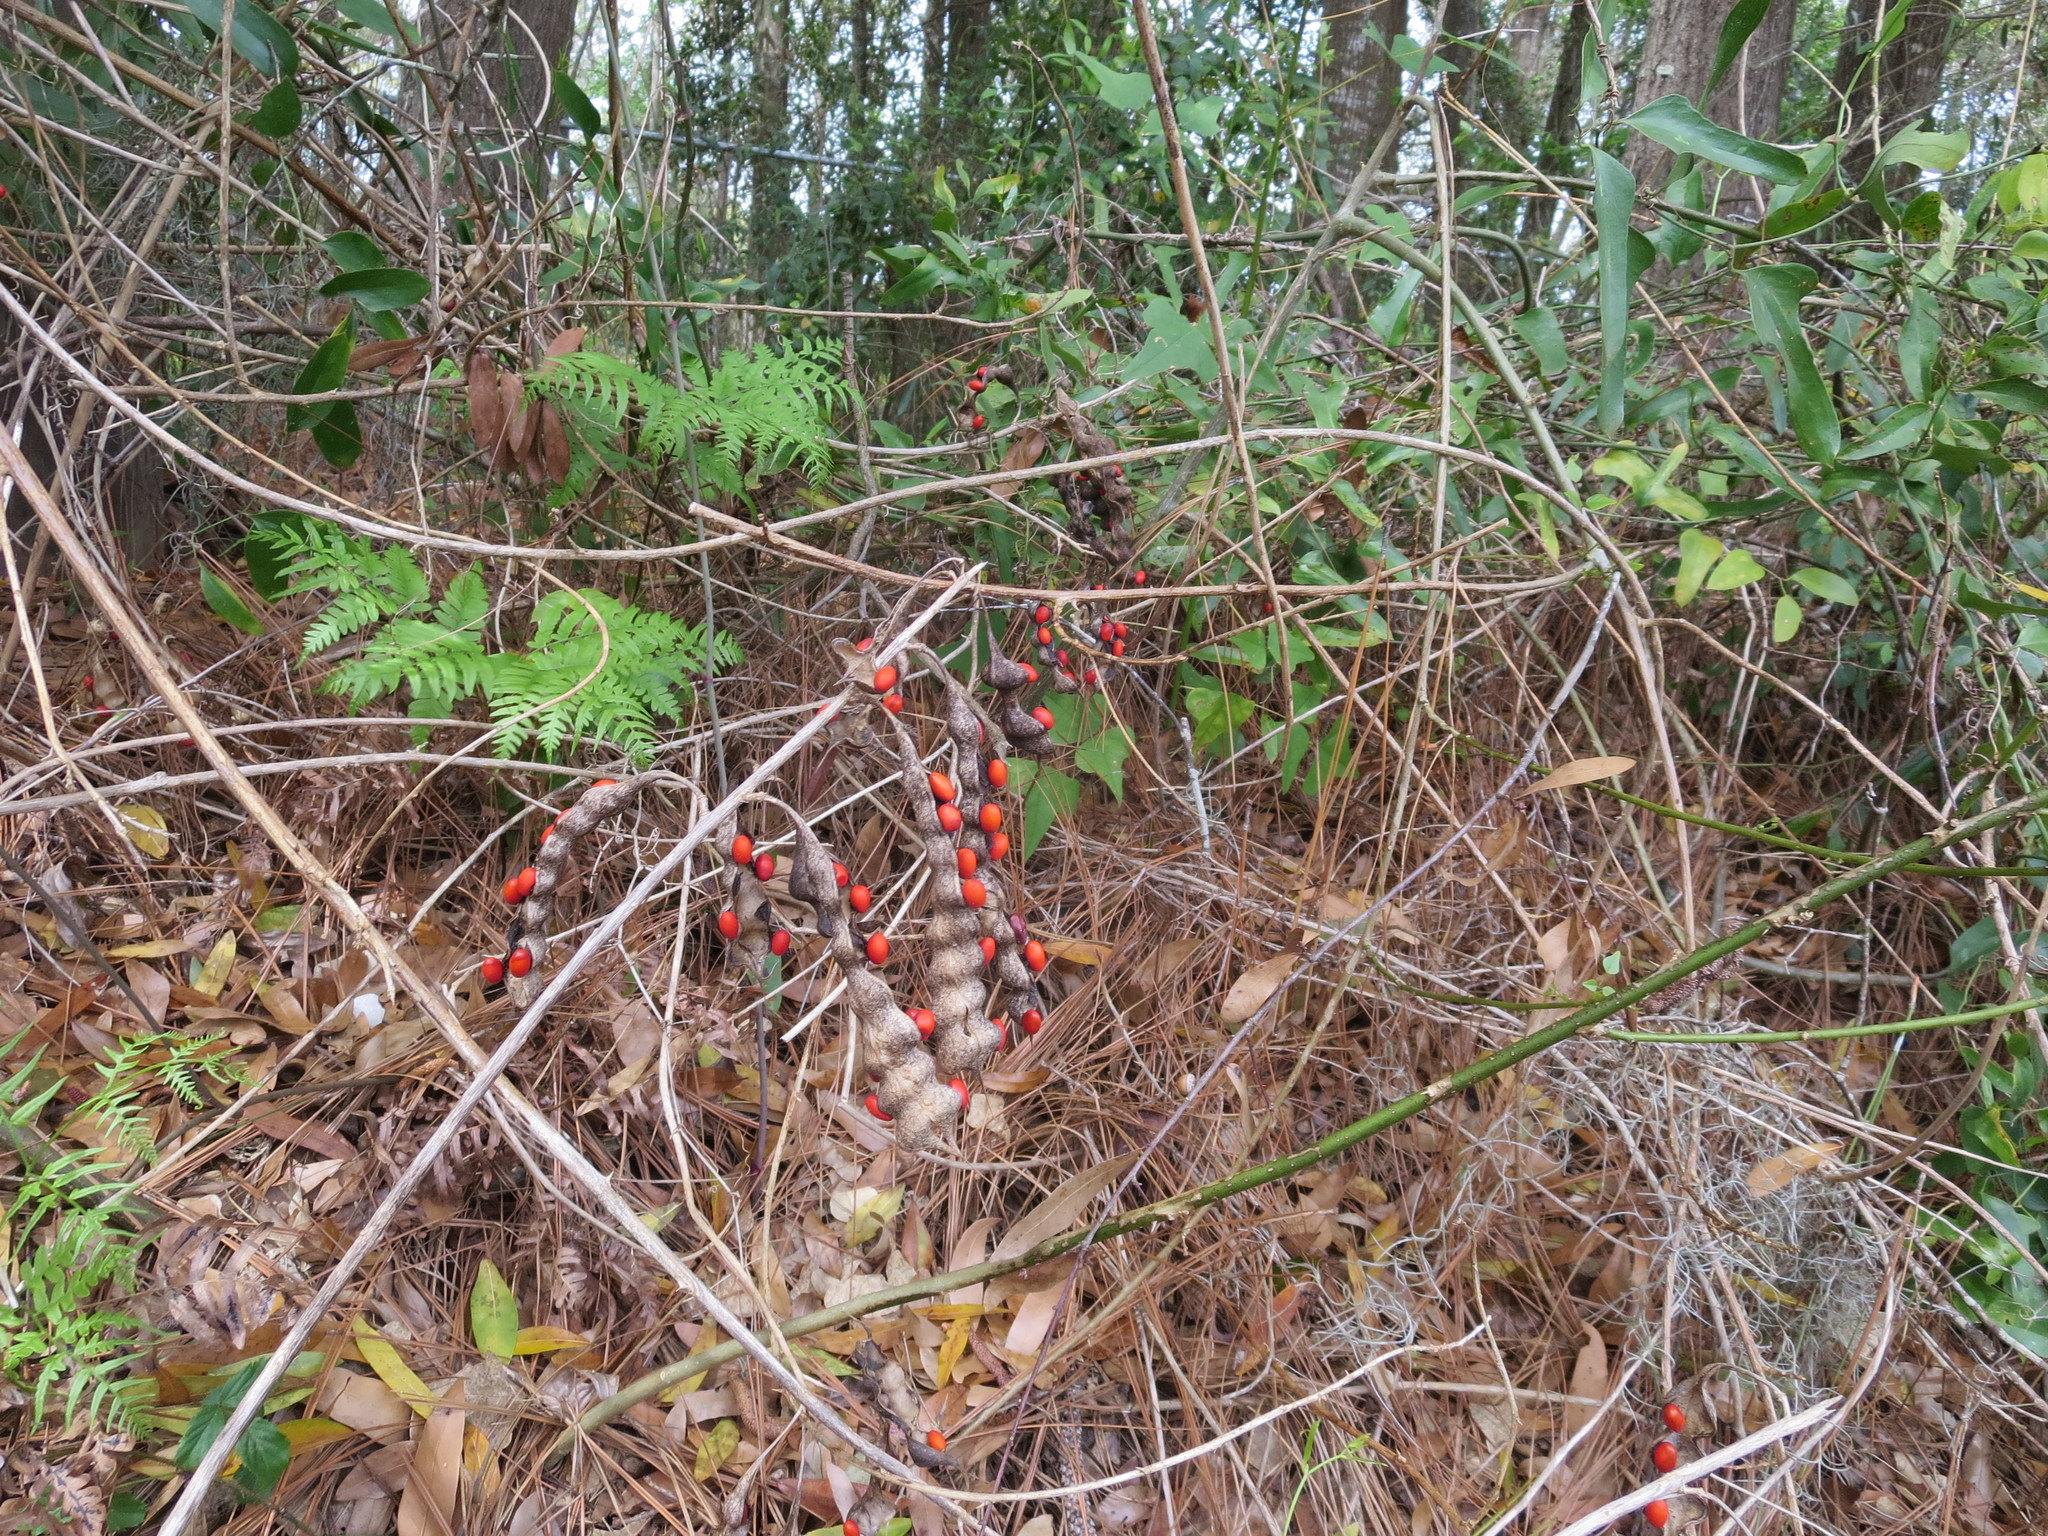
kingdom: Plantae
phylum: Tracheophyta
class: Magnoliopsida
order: Fabales
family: Fabaceae
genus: Erythrina
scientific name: Erythrina herbacea
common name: Coral-bean
